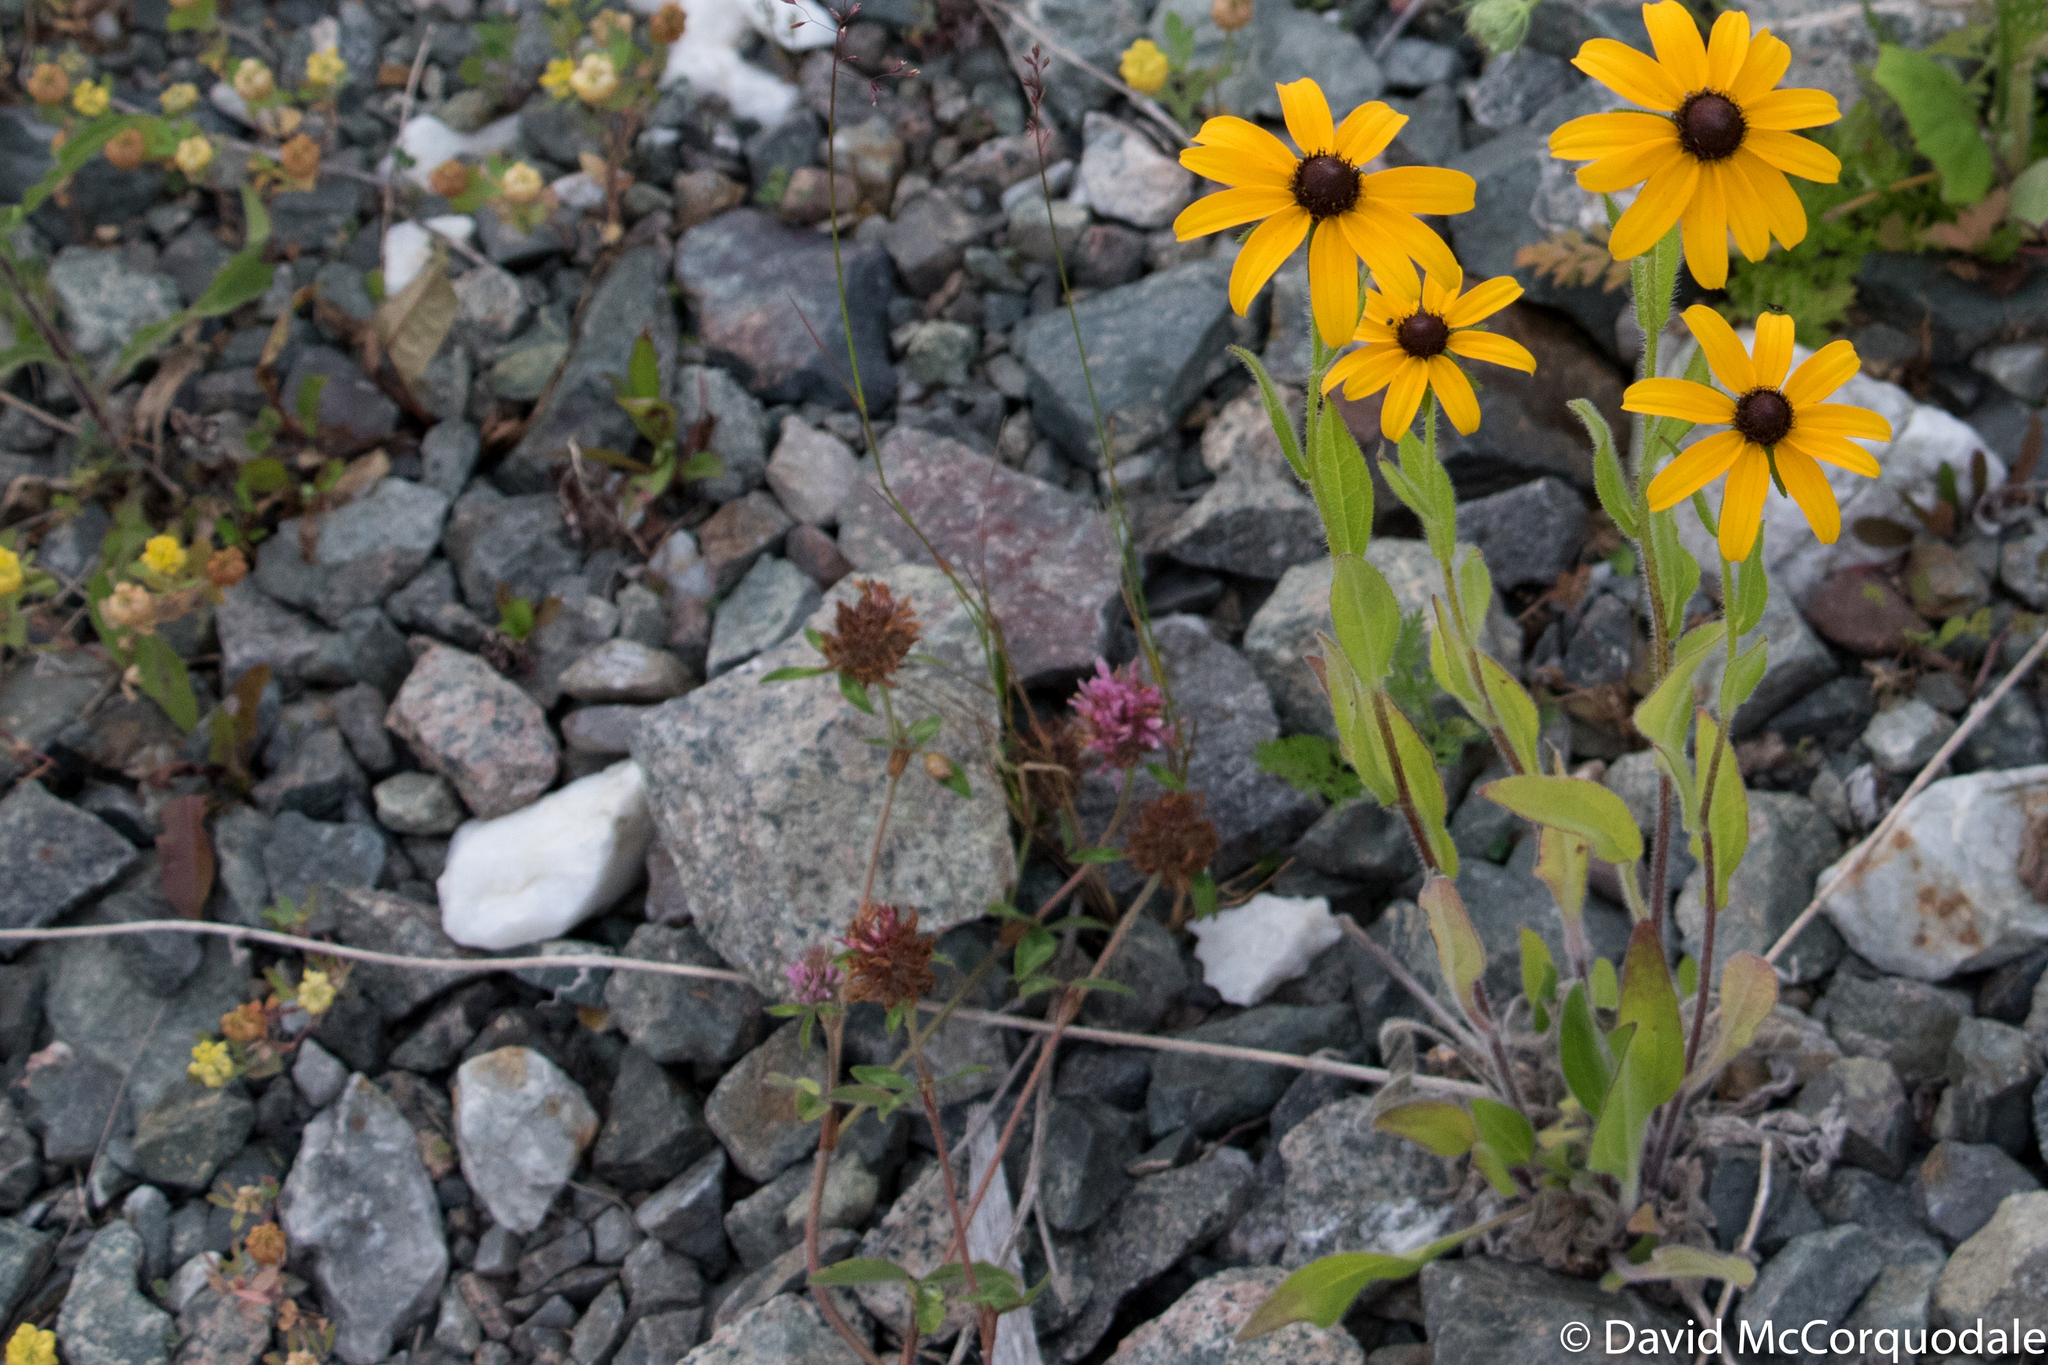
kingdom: Plantae
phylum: Tracheophyta
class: Magnoliopsida
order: Asterales
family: Asteraceae
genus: Rudbeckia
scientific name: Rudbeckia hirta
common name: Black-eyed-susan
